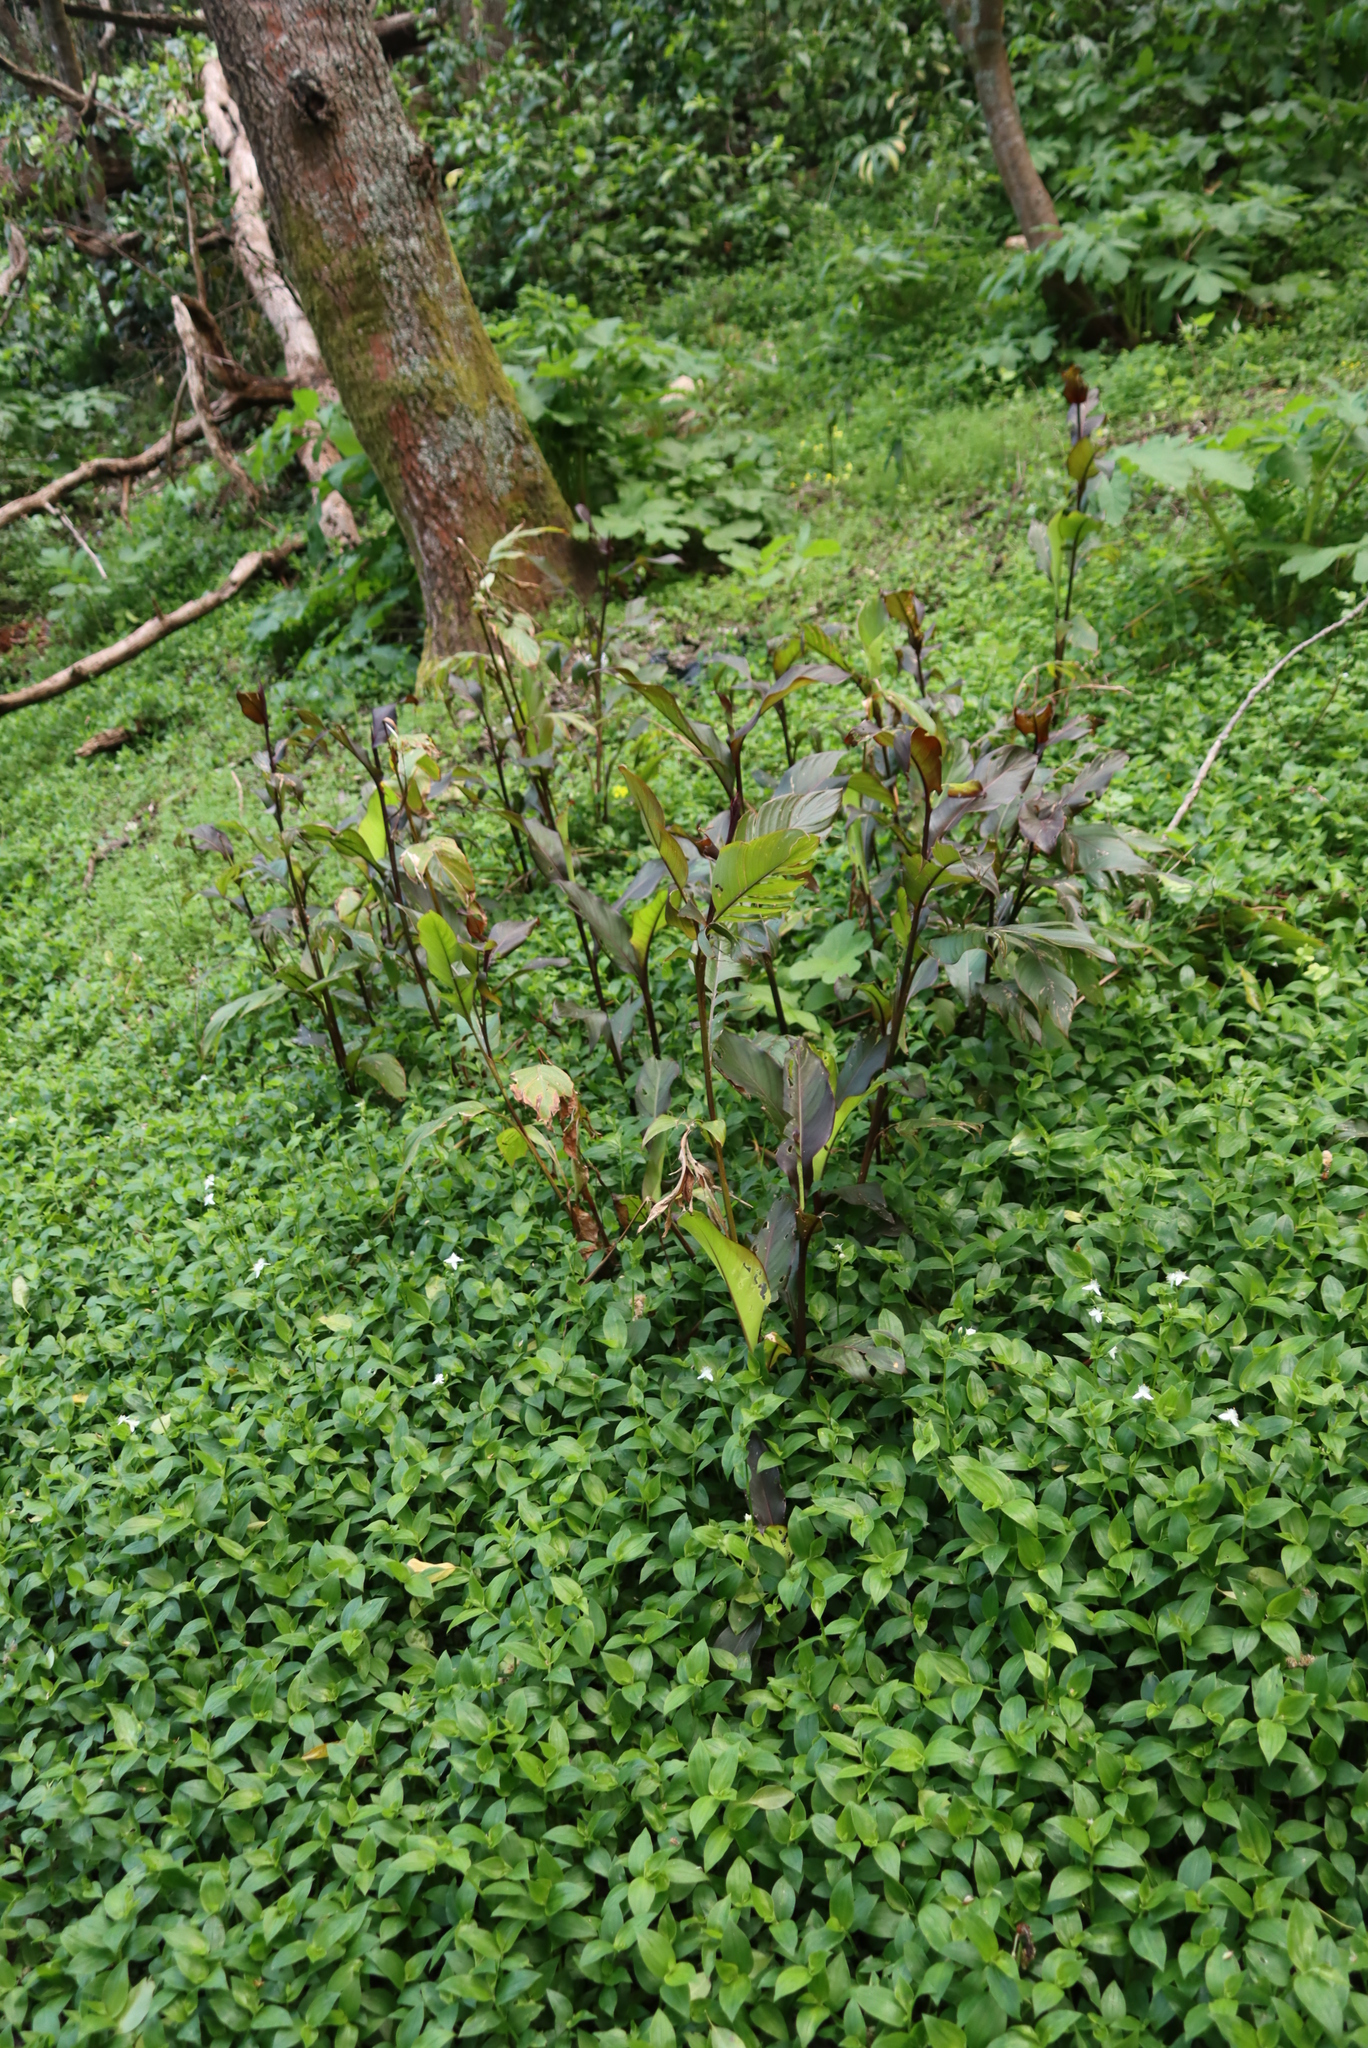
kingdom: Plantae
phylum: Tracheophyta
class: Liliopsida
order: Zingiberales
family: Cannaceae
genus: Canna
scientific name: Canna indica
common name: Indian shot
